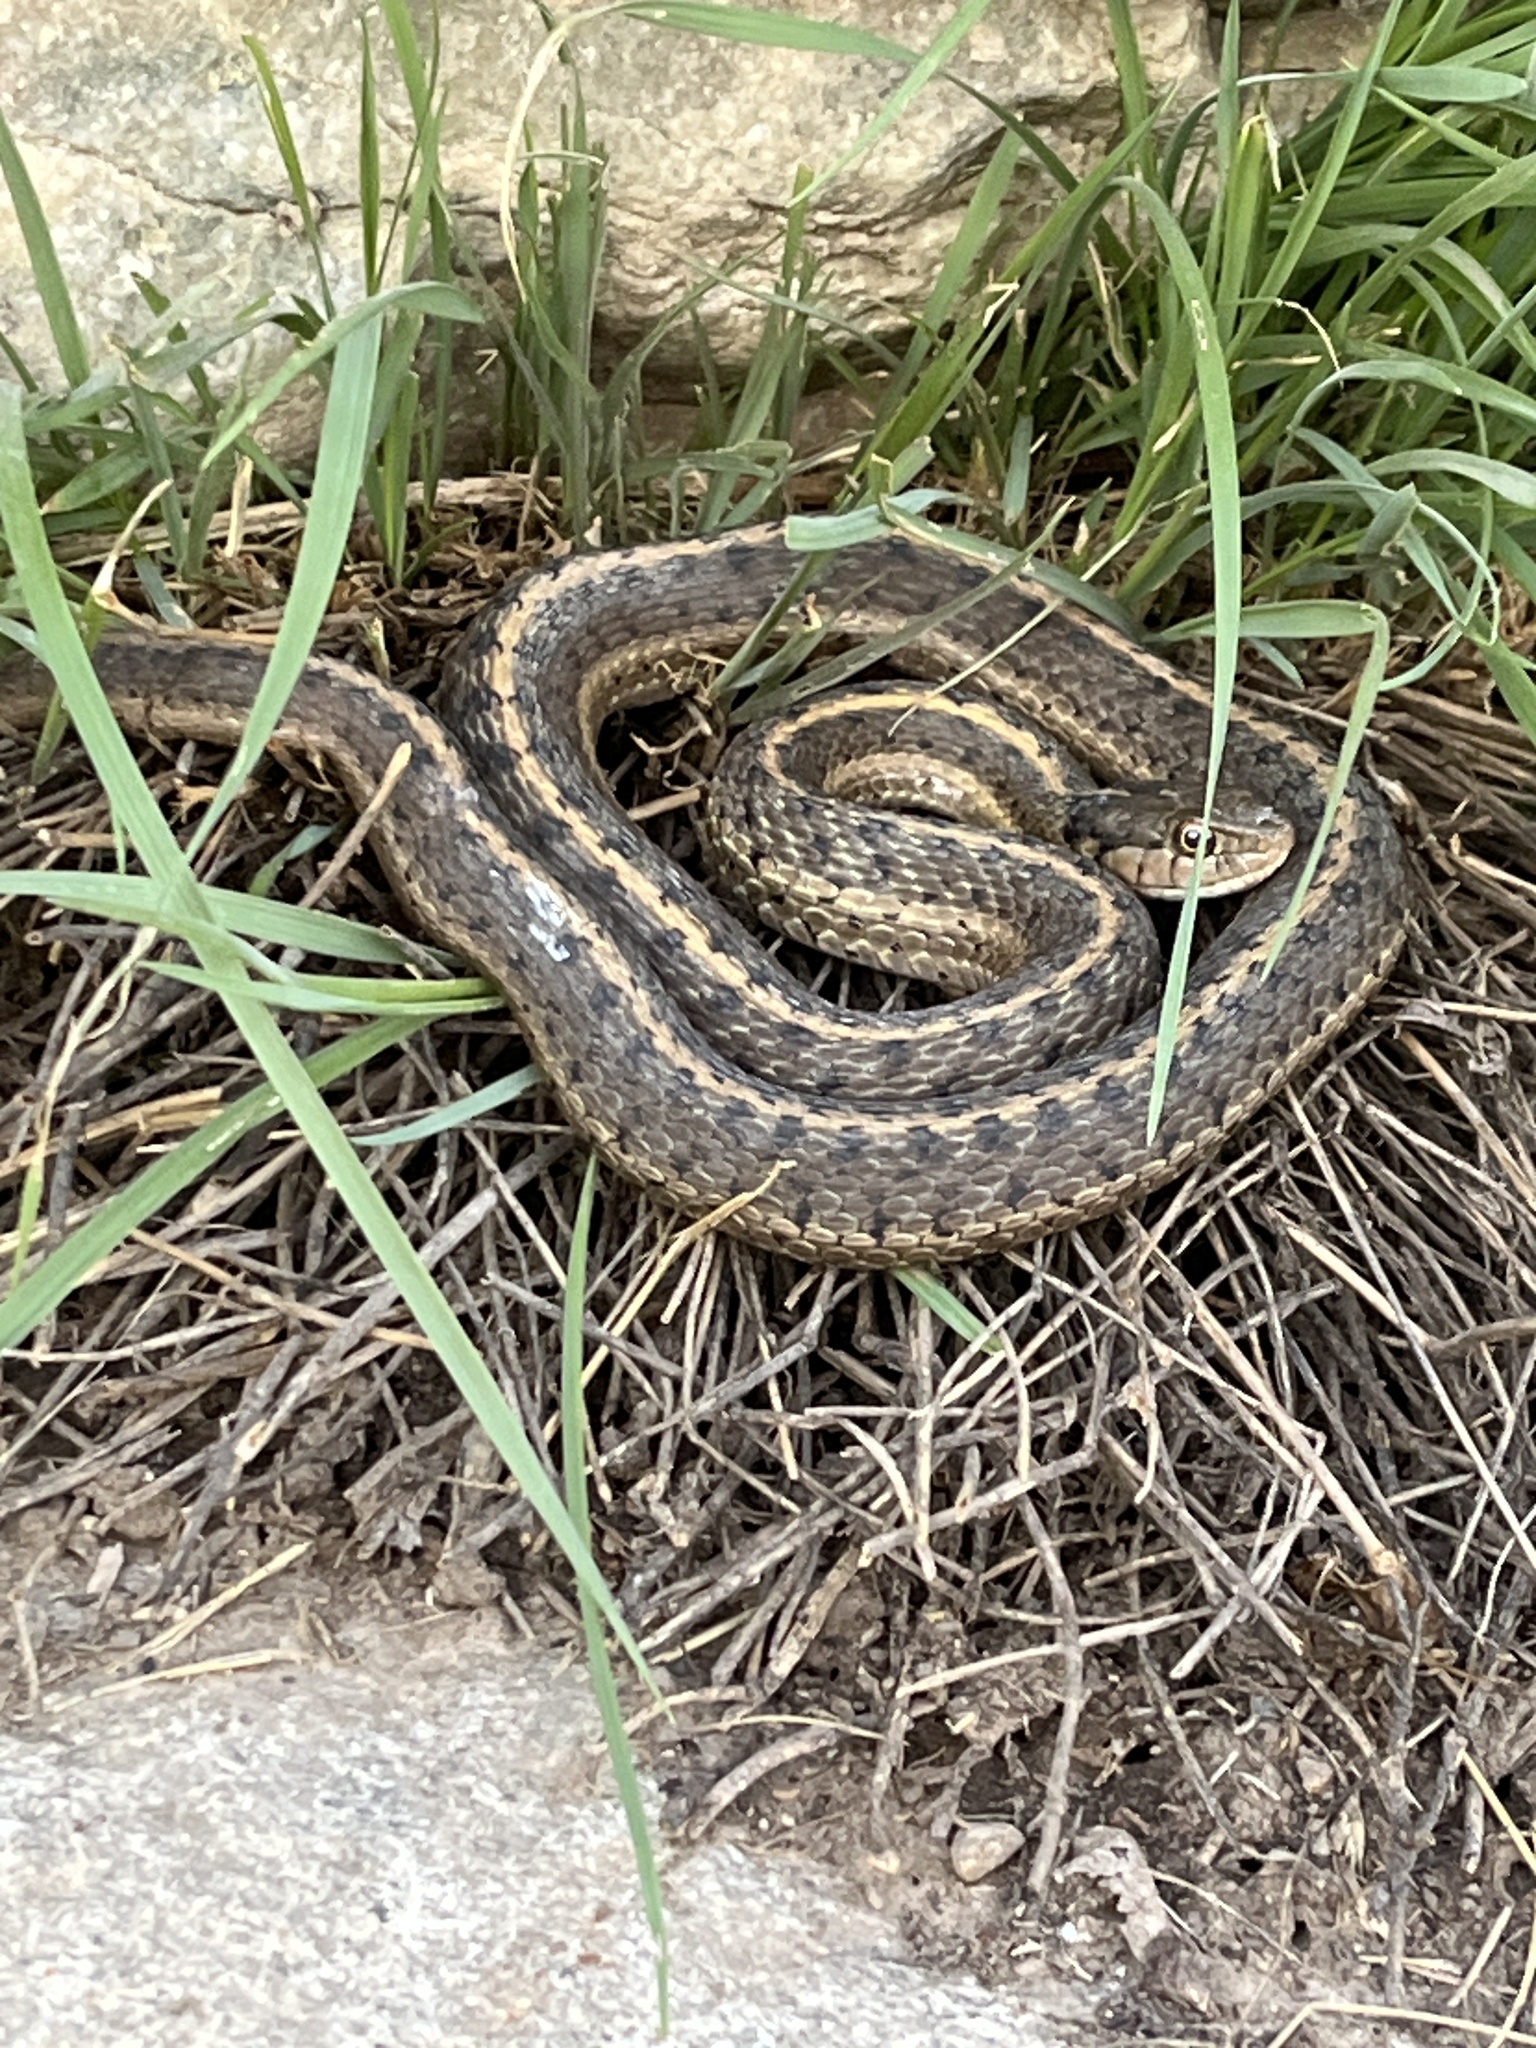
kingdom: Animalia
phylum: Chordata
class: Squamata
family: Colubridae
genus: Thamnophis
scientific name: Thamnophis elegans
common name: Western terrestrial garter snake
